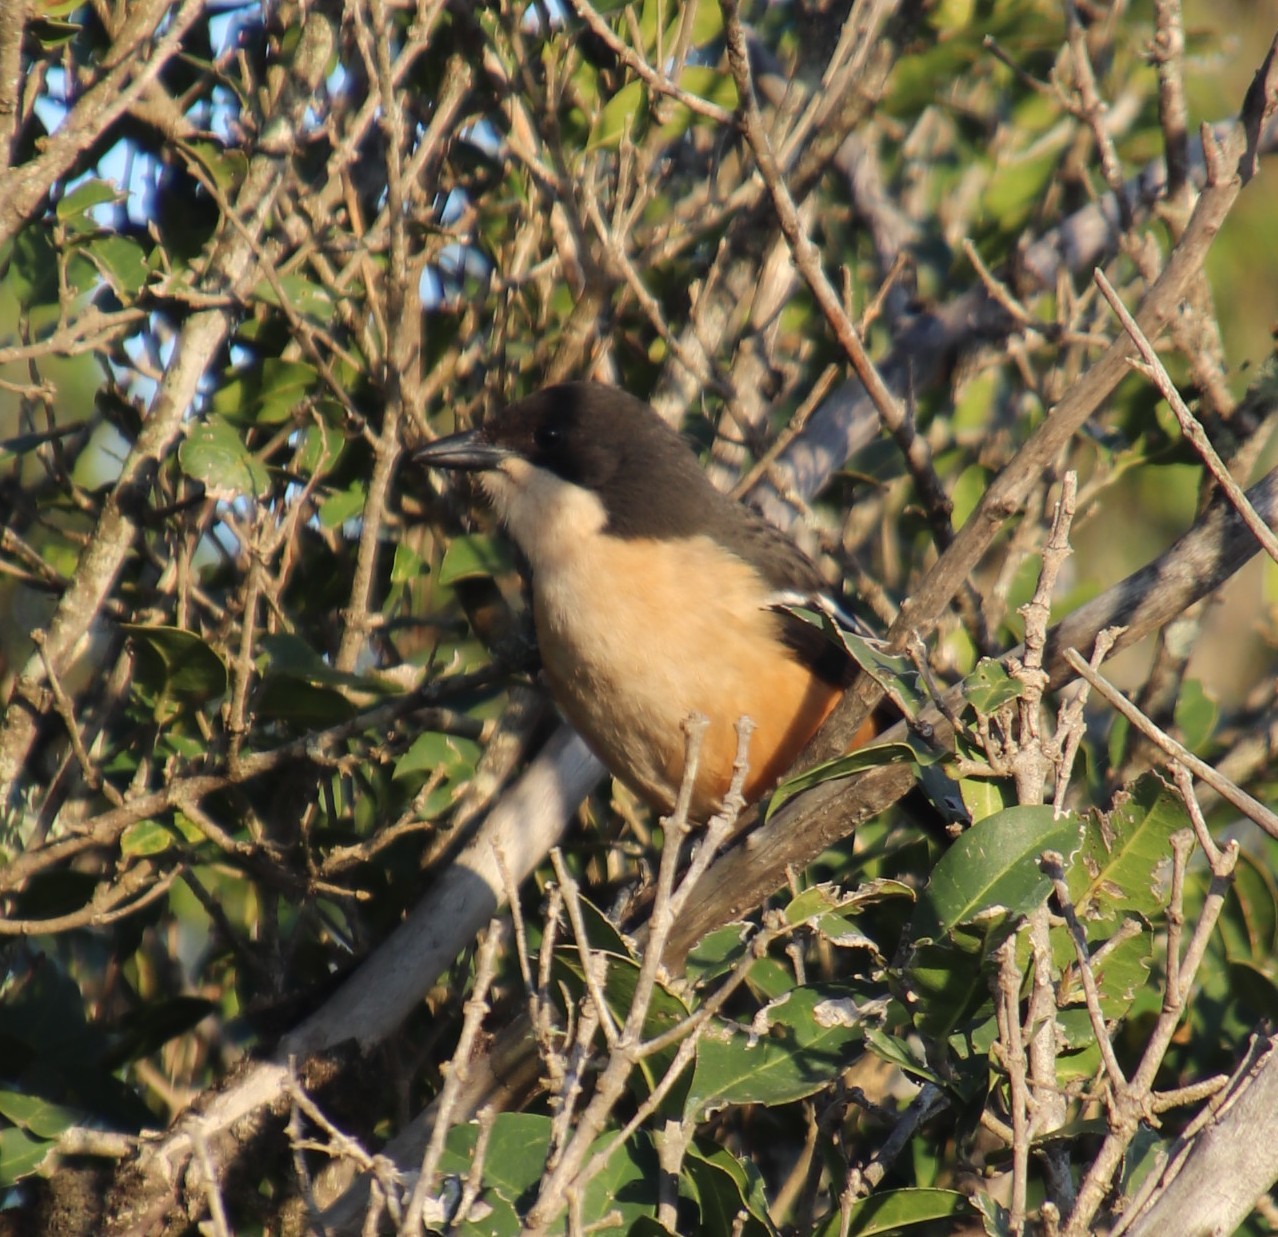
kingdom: Animalia
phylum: Chordata
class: Aves
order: Passeriformes
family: Malaconotidae
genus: Laniarius
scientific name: Laniarius ferrugineus
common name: Southern boubou
